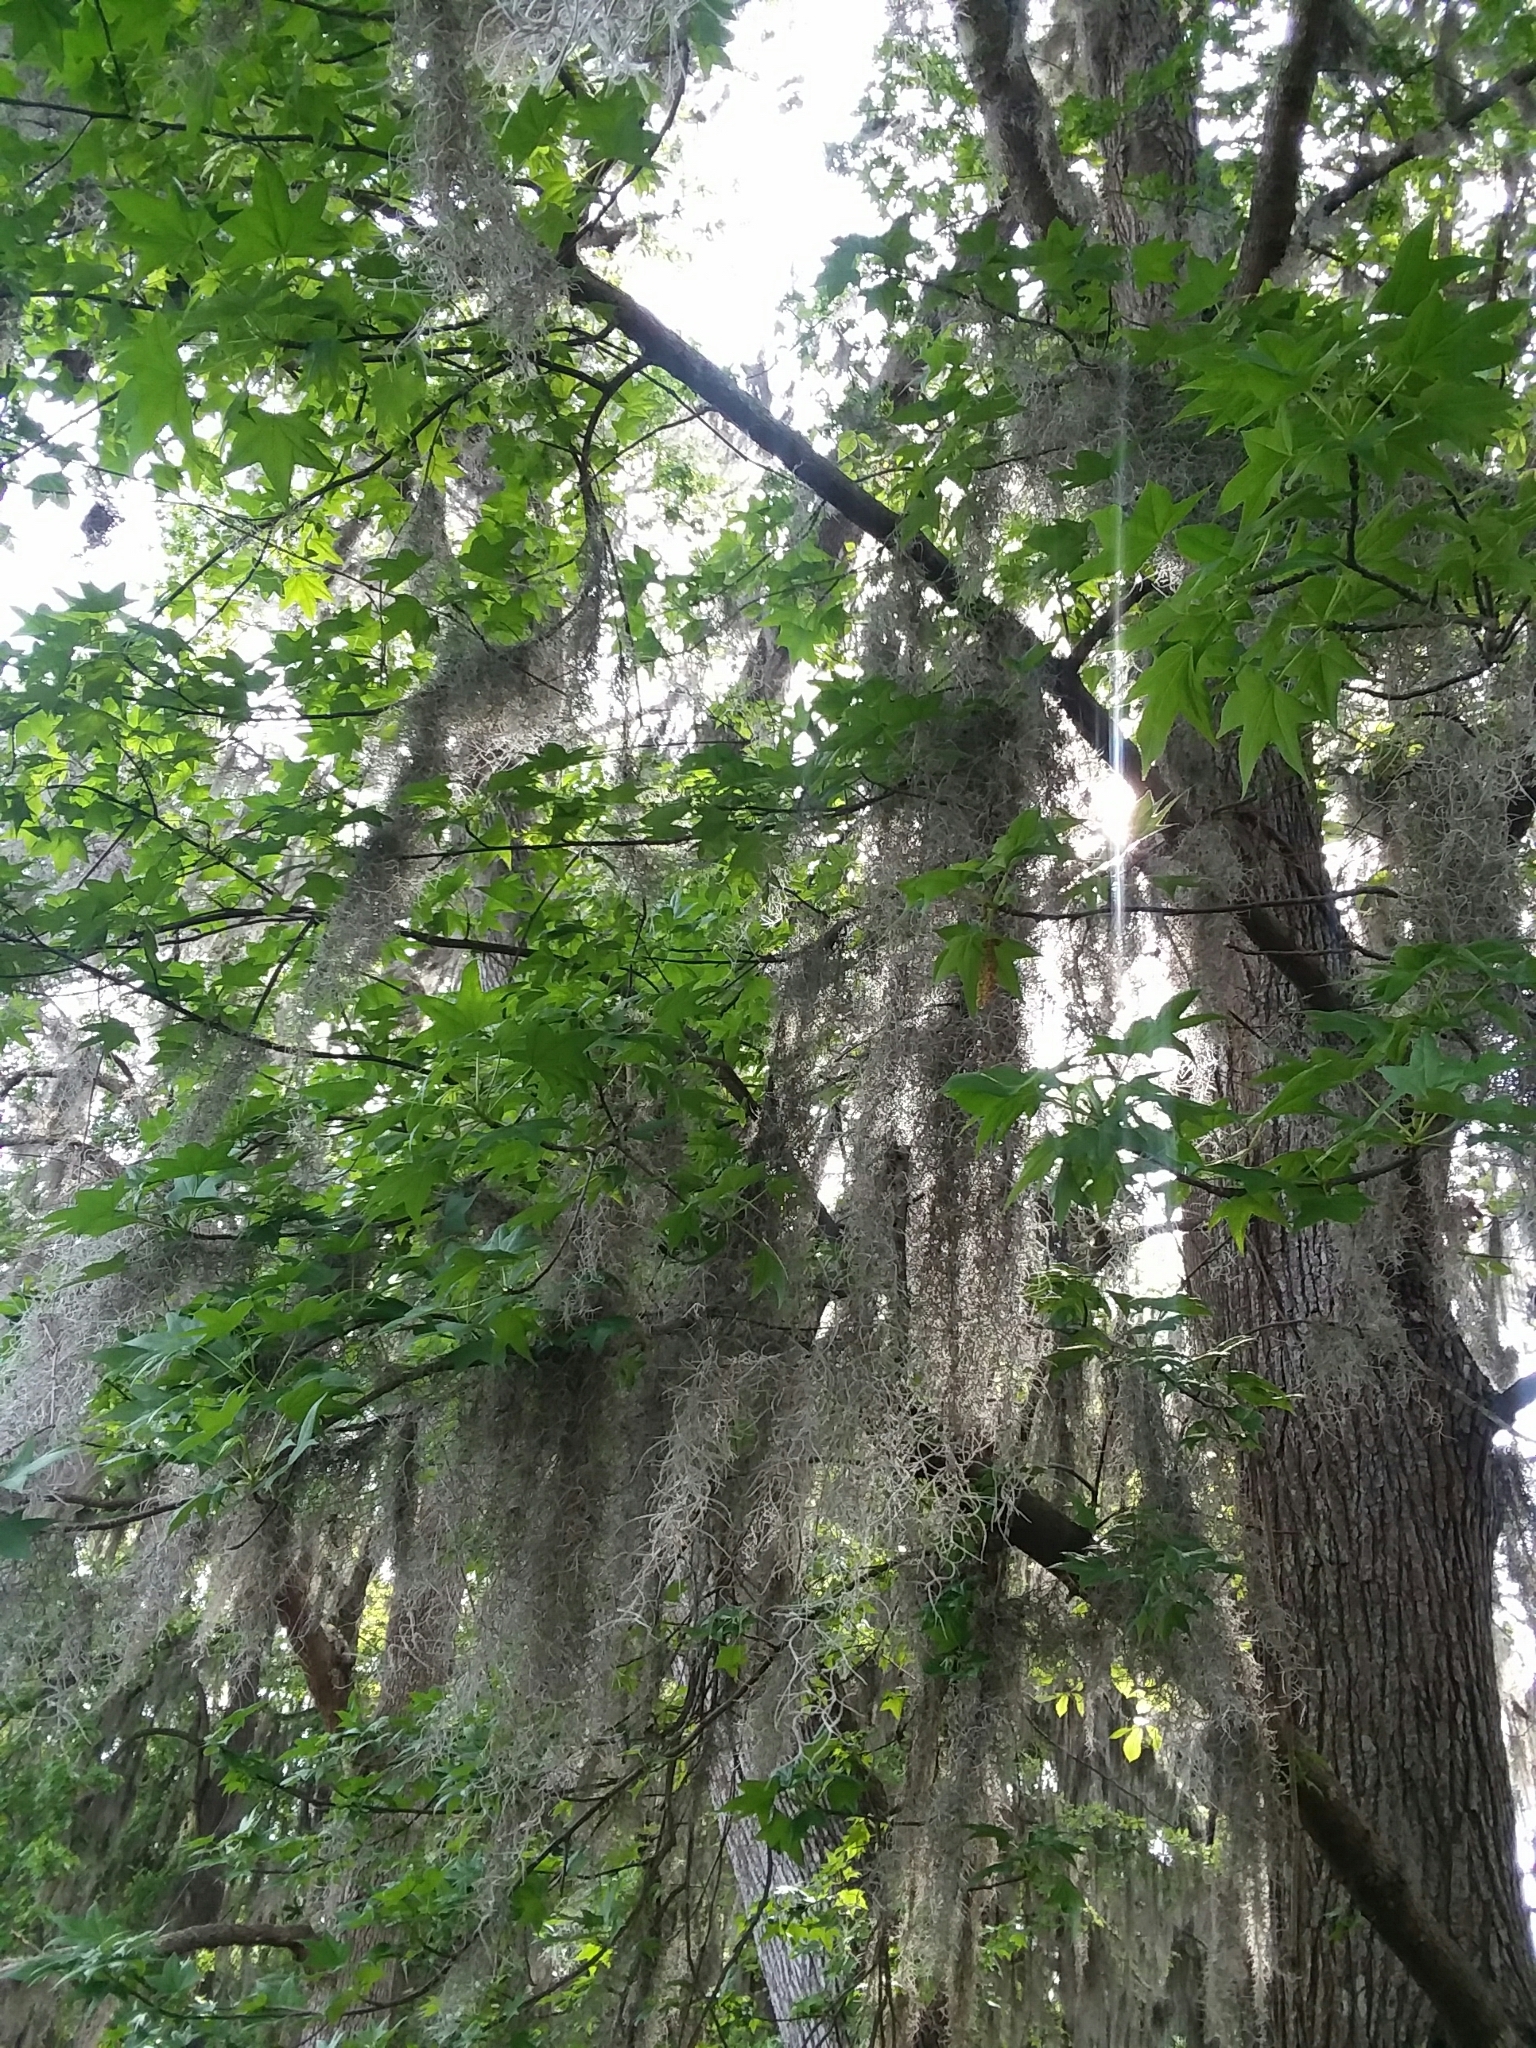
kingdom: Plantae
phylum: Tracheophyta
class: Liliopsida
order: Poales
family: Bromeliaceae
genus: Tillandsia
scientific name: Tillandsia usneoides
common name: Spanish moss
